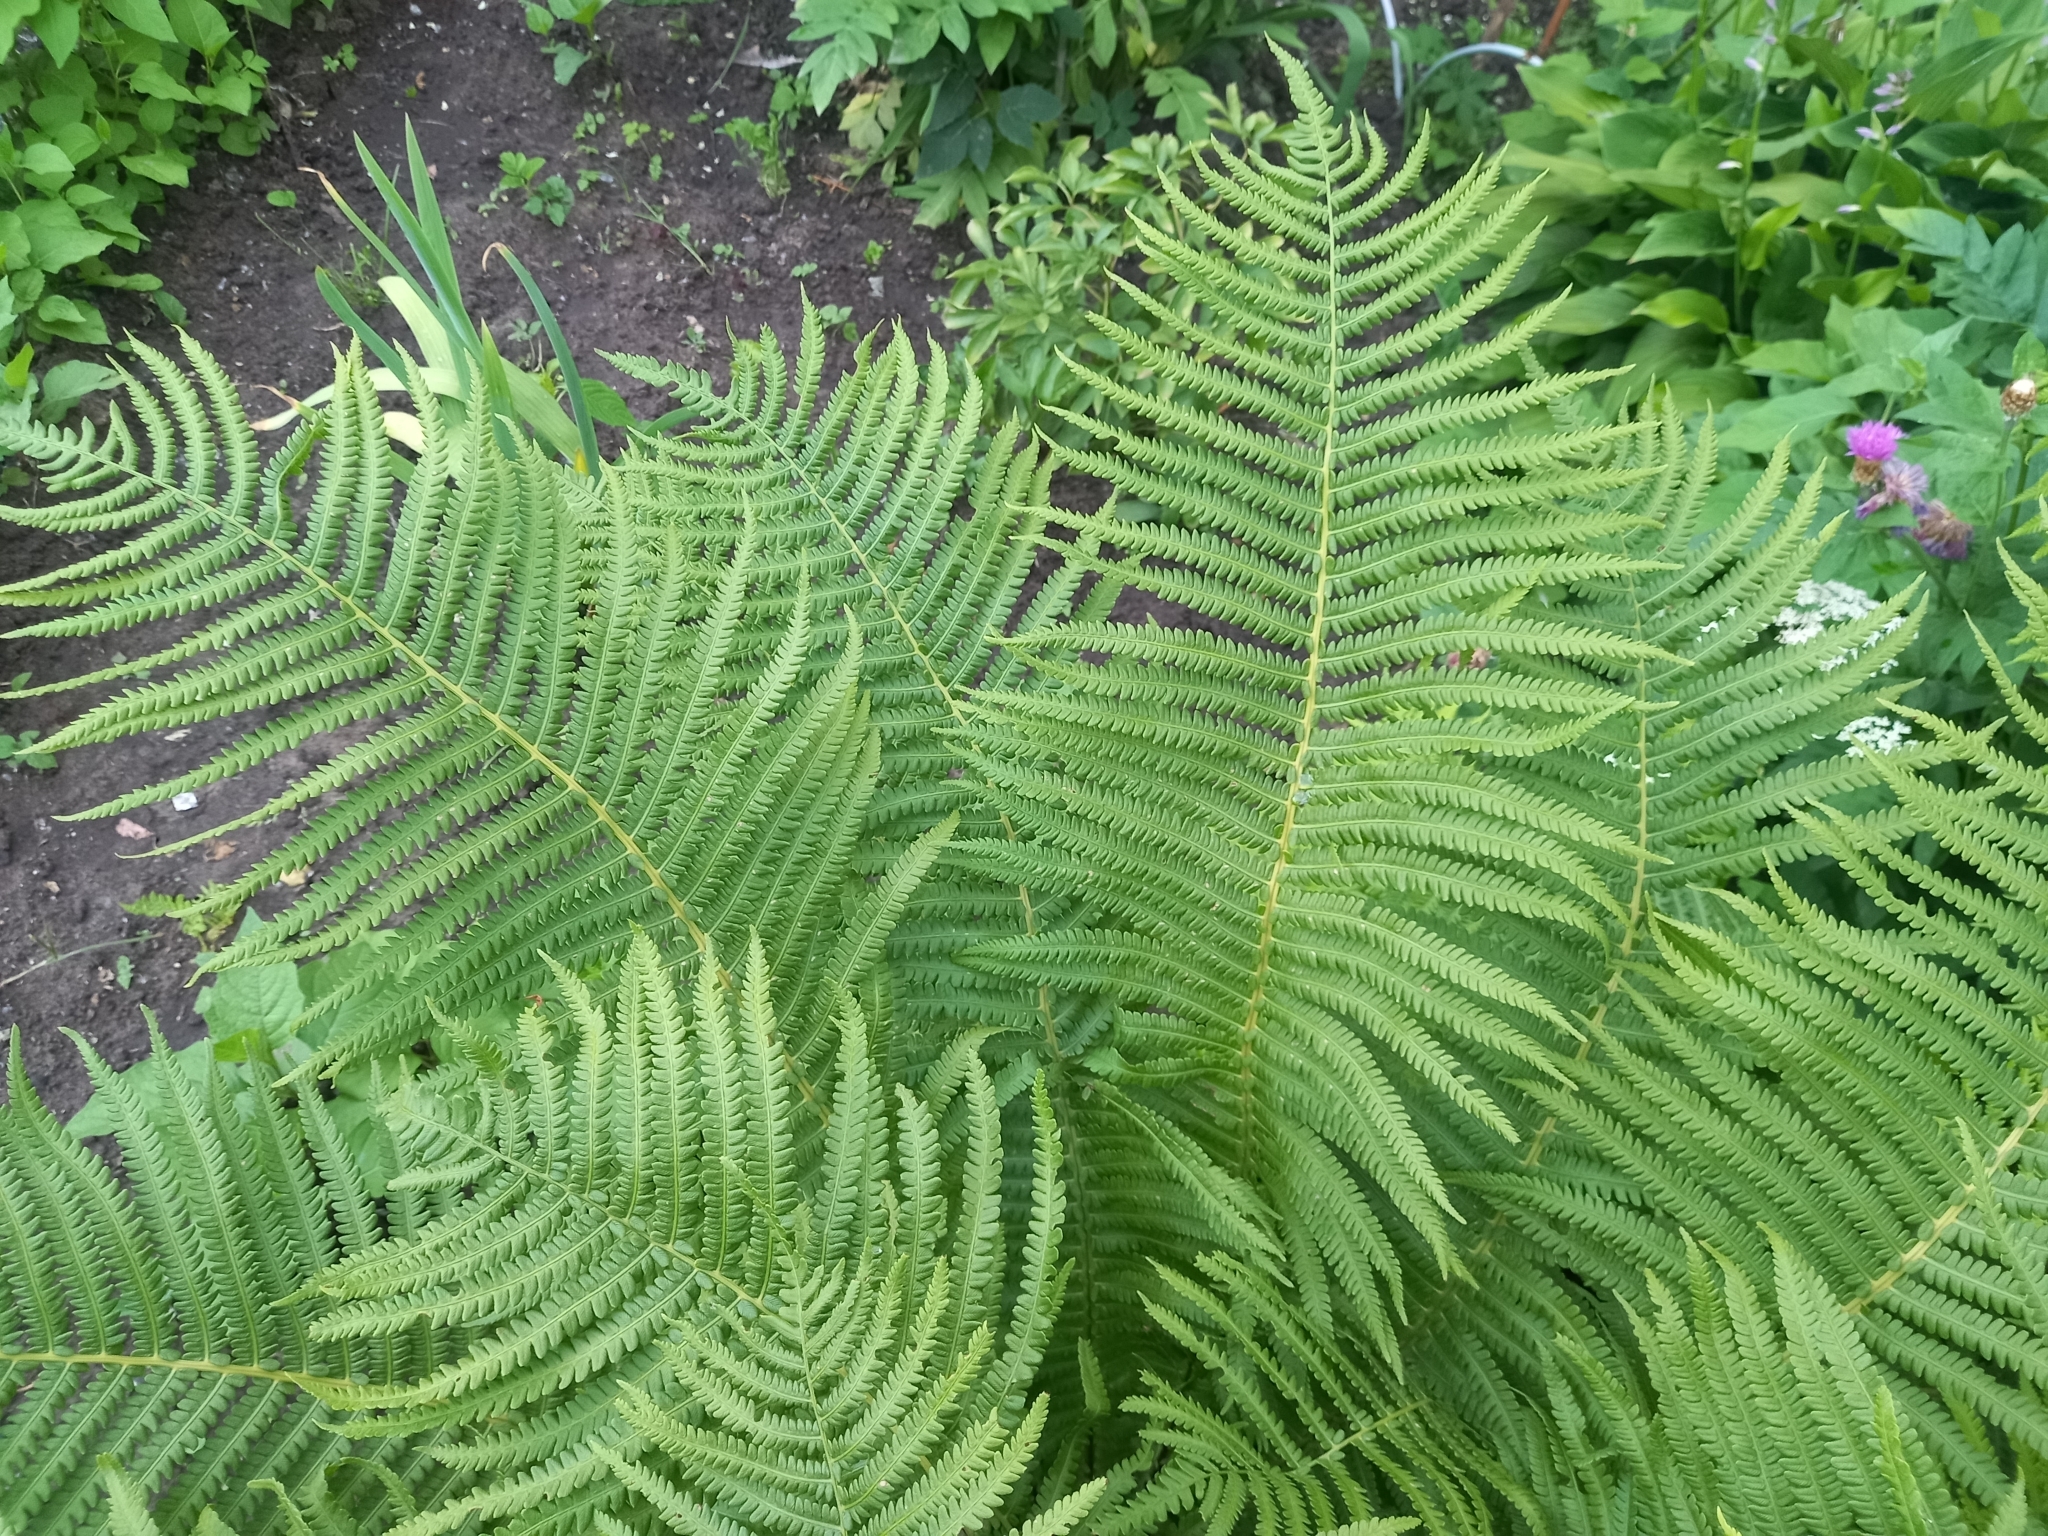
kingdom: Plantae
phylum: Tracheophyta
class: Polypodiopsida
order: Polypodiales
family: Onocleaceae
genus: Matteuccia
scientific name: Matteuccia struthiopteris
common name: Ostrich fern
